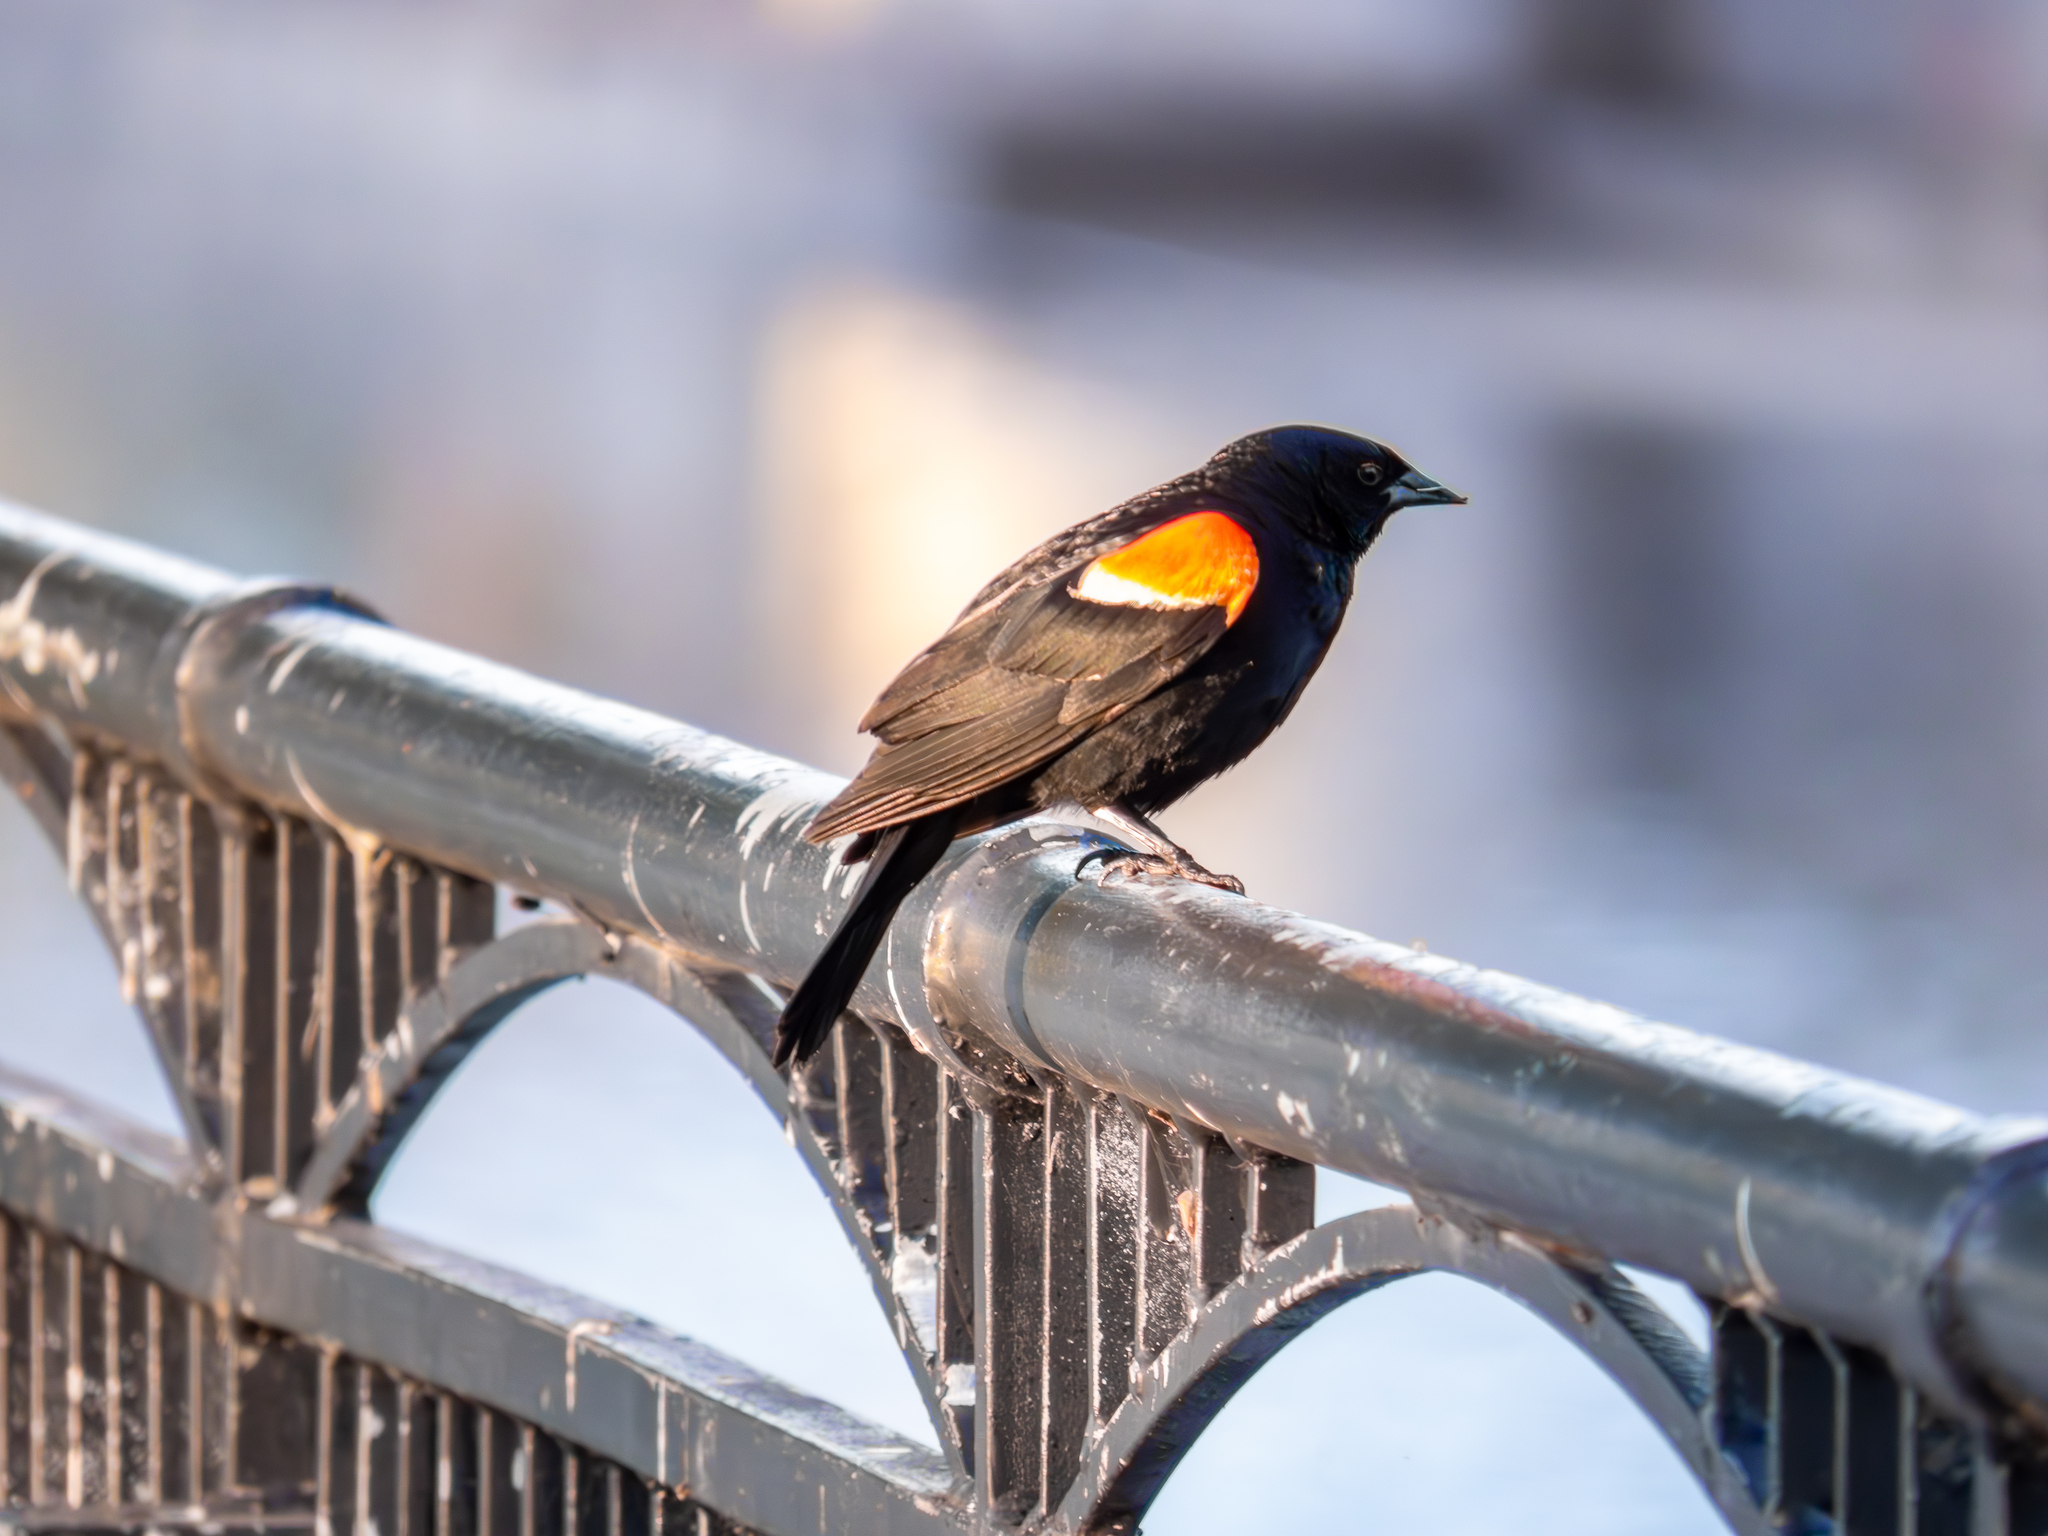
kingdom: Animalia
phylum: Chordata
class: Aves
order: Passeriformes
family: Icteridae
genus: Agelaius
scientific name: Agelaius phoeniceus
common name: Red-winged blackbird
